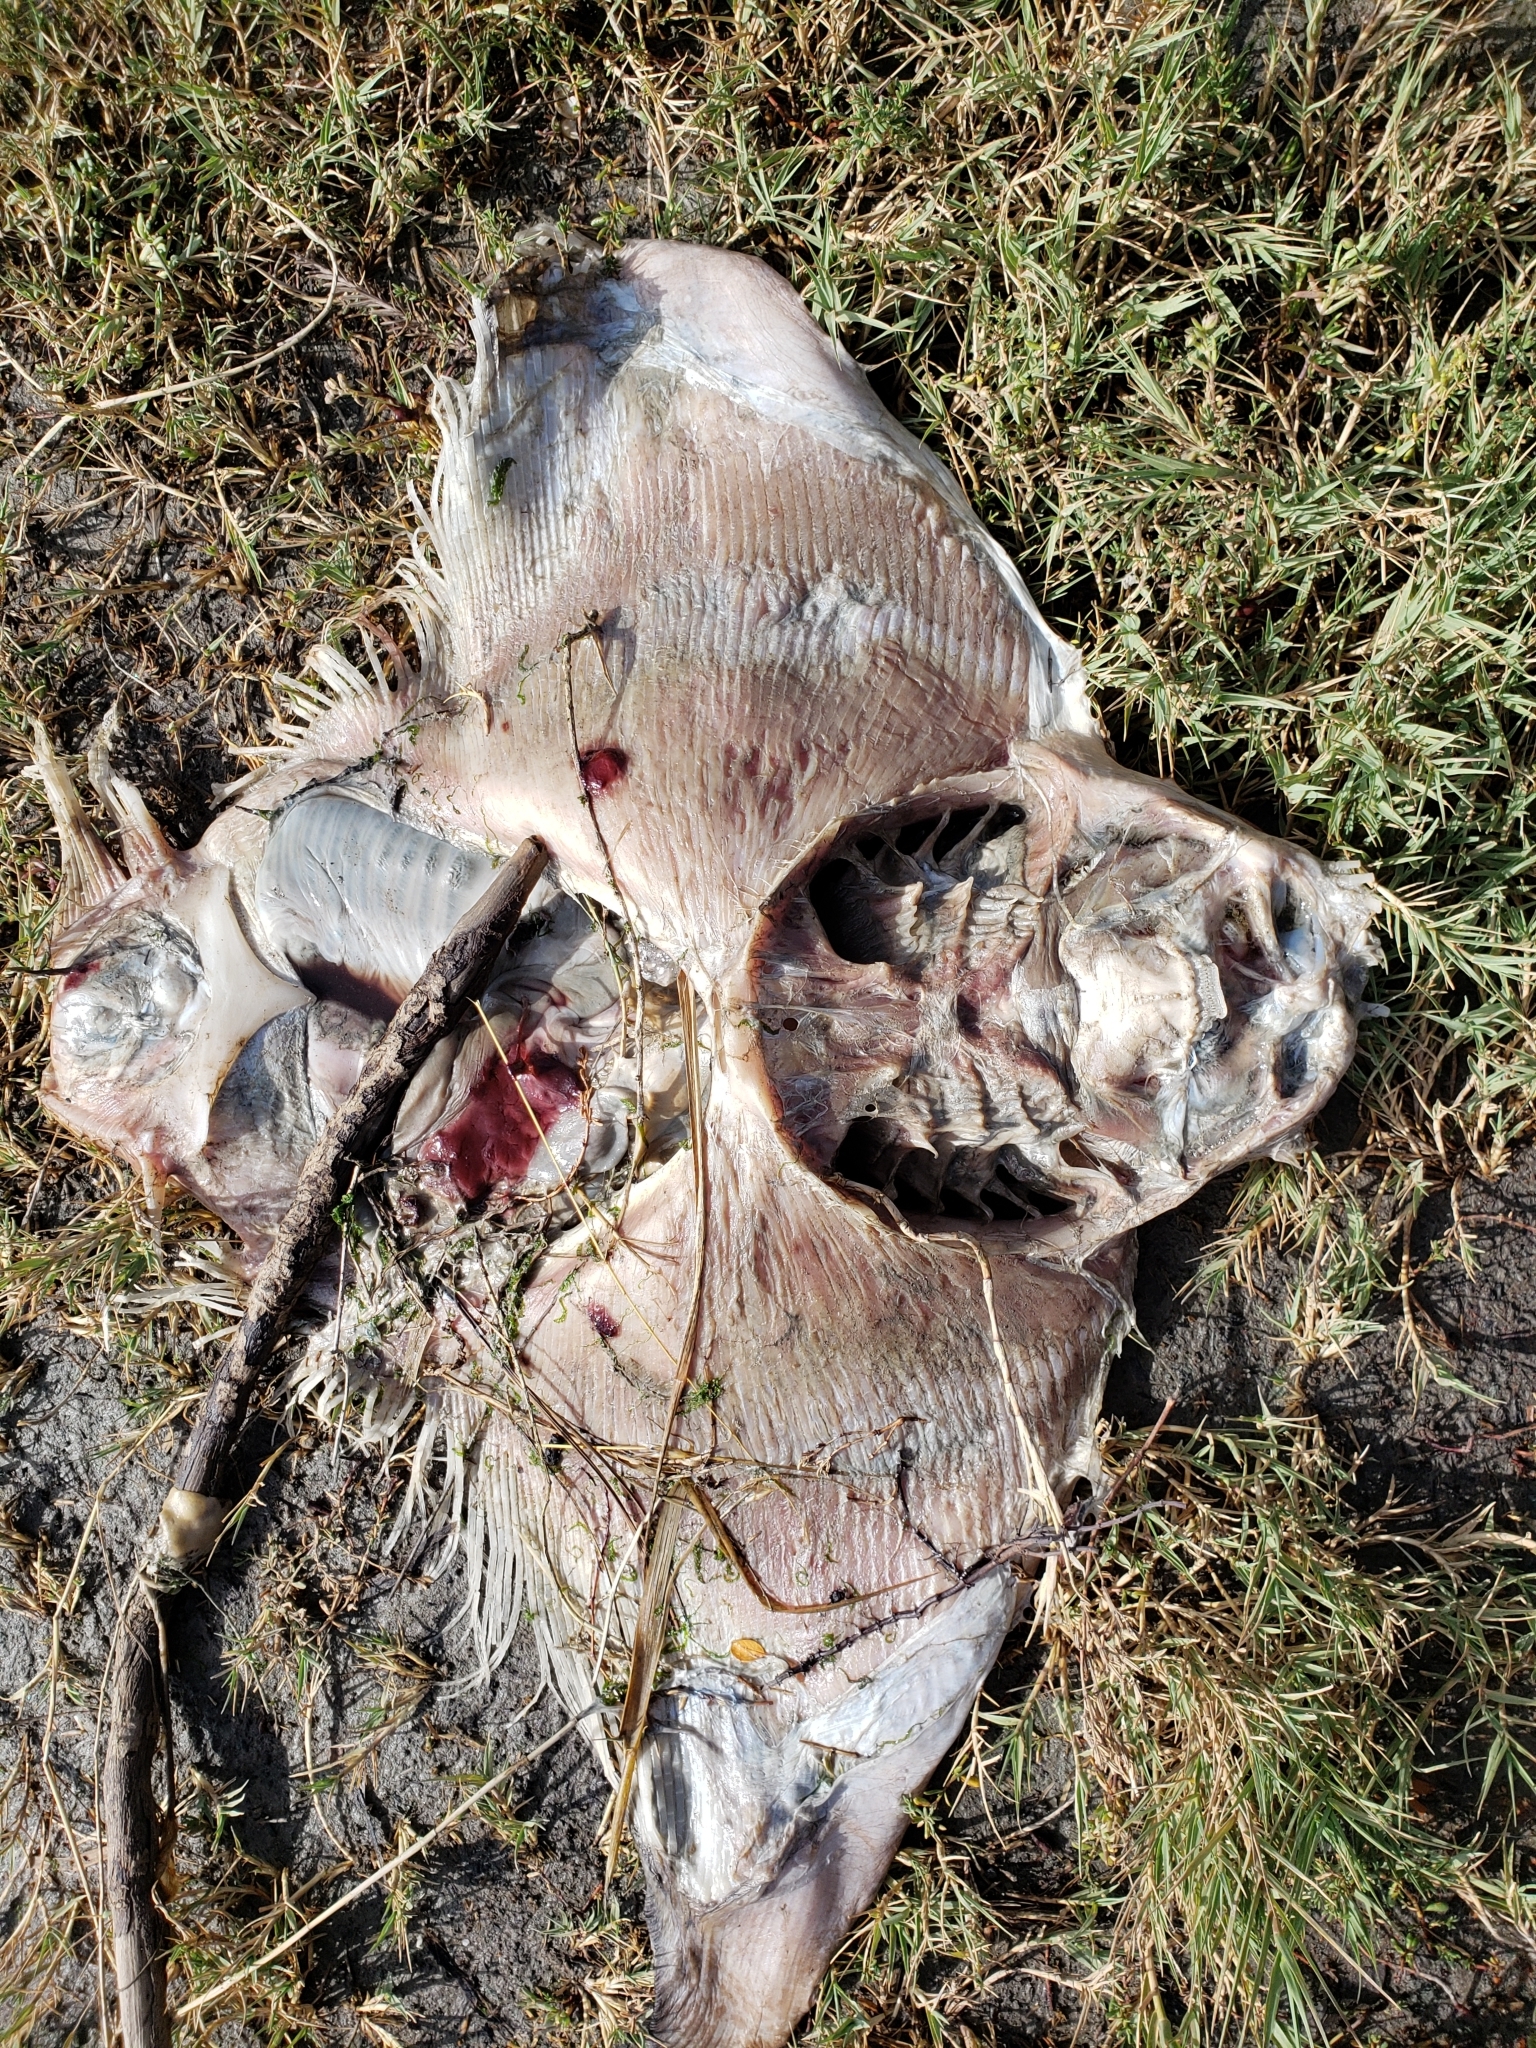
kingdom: Animalia
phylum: Chordata
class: Elasmobranchii
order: Myliobatiformes
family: Myliobatidae
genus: Myliobatis
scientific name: Myliobatis californica
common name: Bat ray
